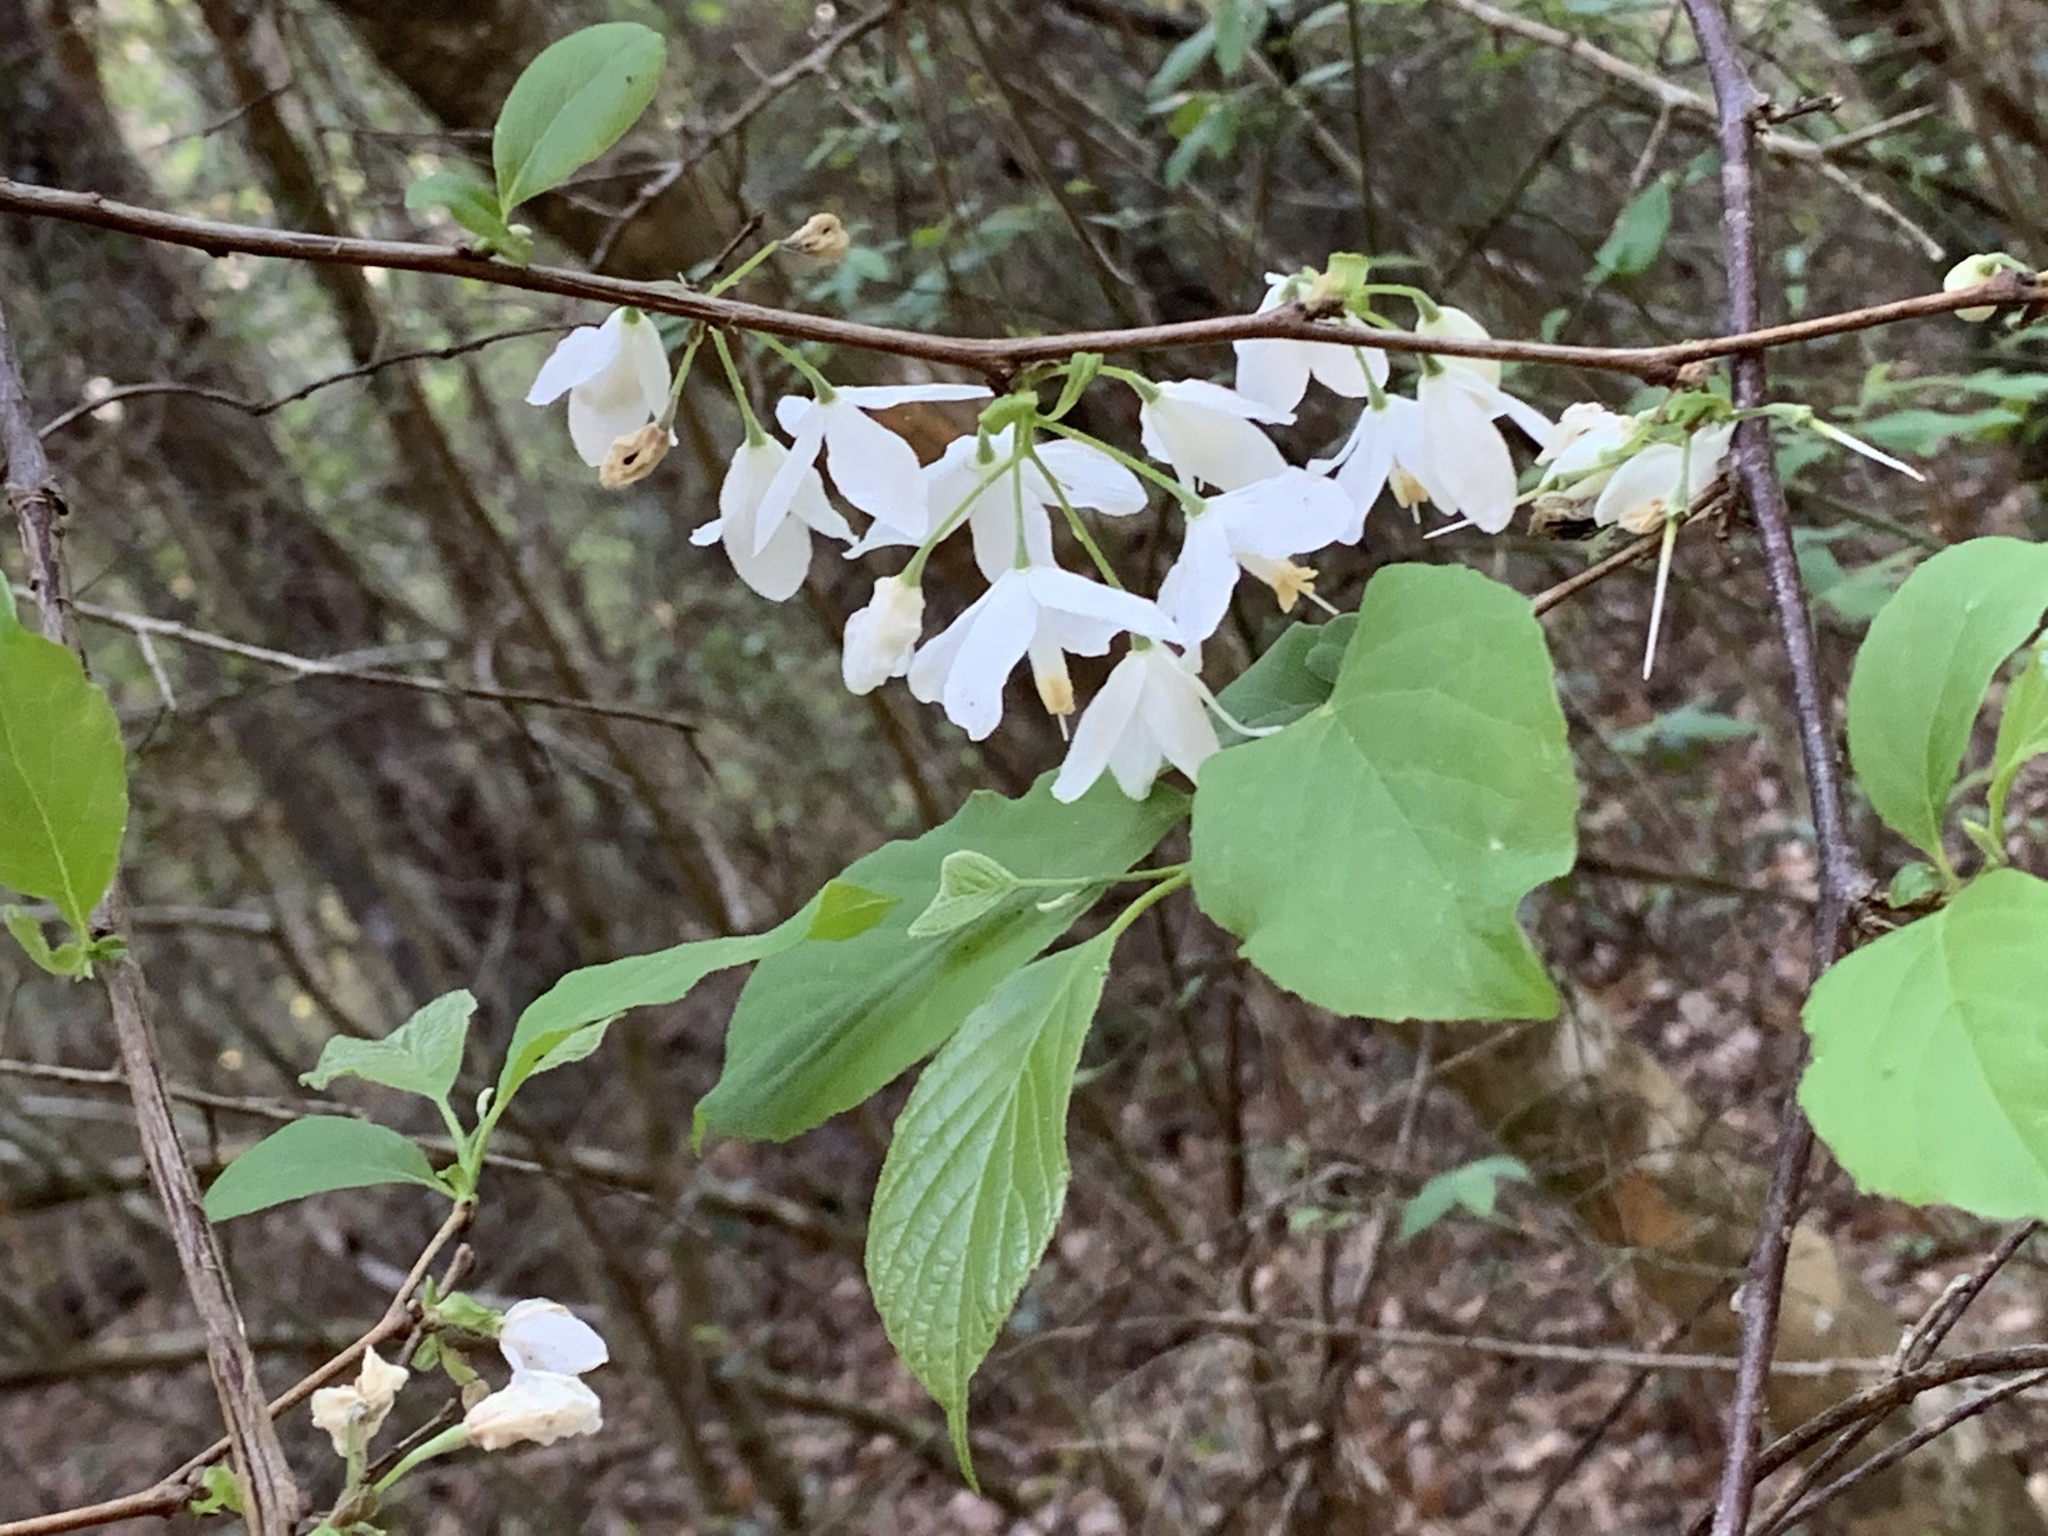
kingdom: Plantae
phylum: Tracheophyta
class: Magnoliopsida
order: Ericales
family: Styracaceae
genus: Halesia
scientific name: Halesia diptera
